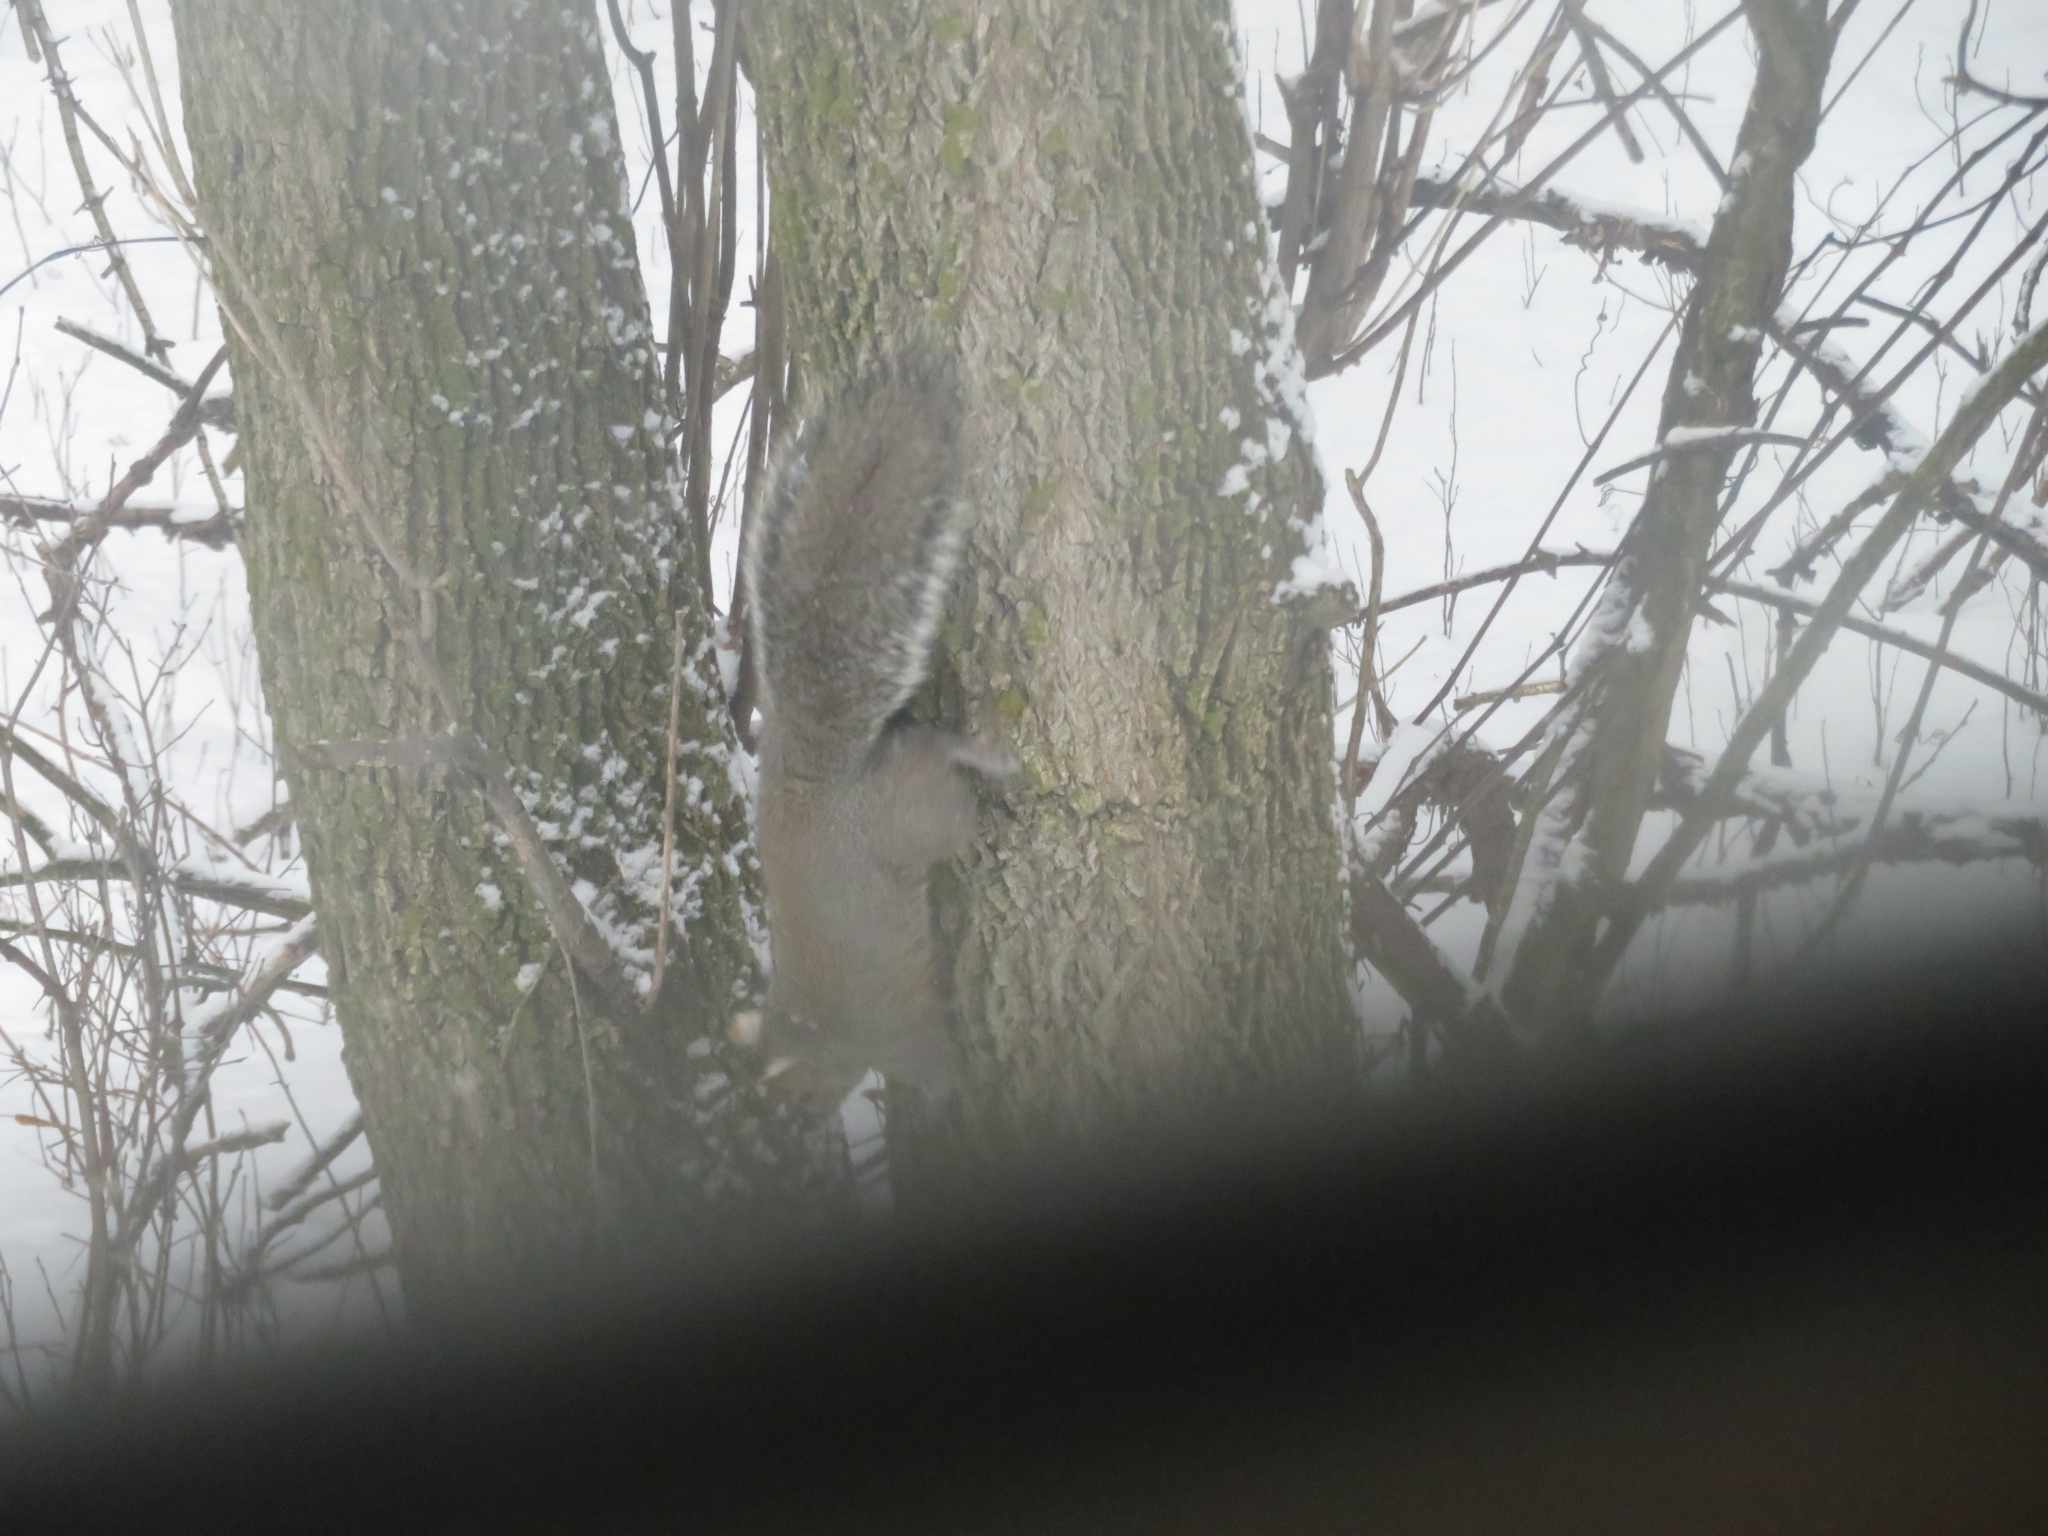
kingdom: Animalia
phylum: Chordata
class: Mammalia
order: Rodentia
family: Sciuridae
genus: Sciurus
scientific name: Sciurus carolinensis
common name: Eastern gray squirrel
